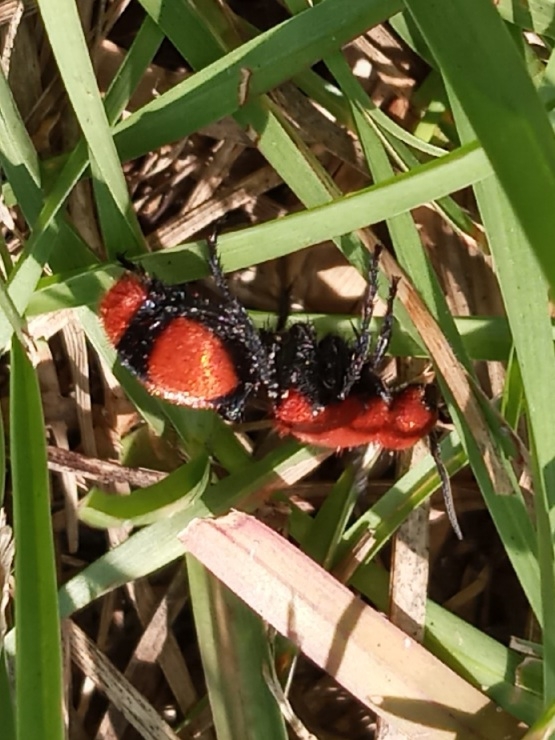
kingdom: Animalia
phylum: Arthropoda
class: Insecta
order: Hymenoptera
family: Mutillidae
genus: Dasymutilla
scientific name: Dasymutilla occidentalis
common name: Common eastern velvet ant
